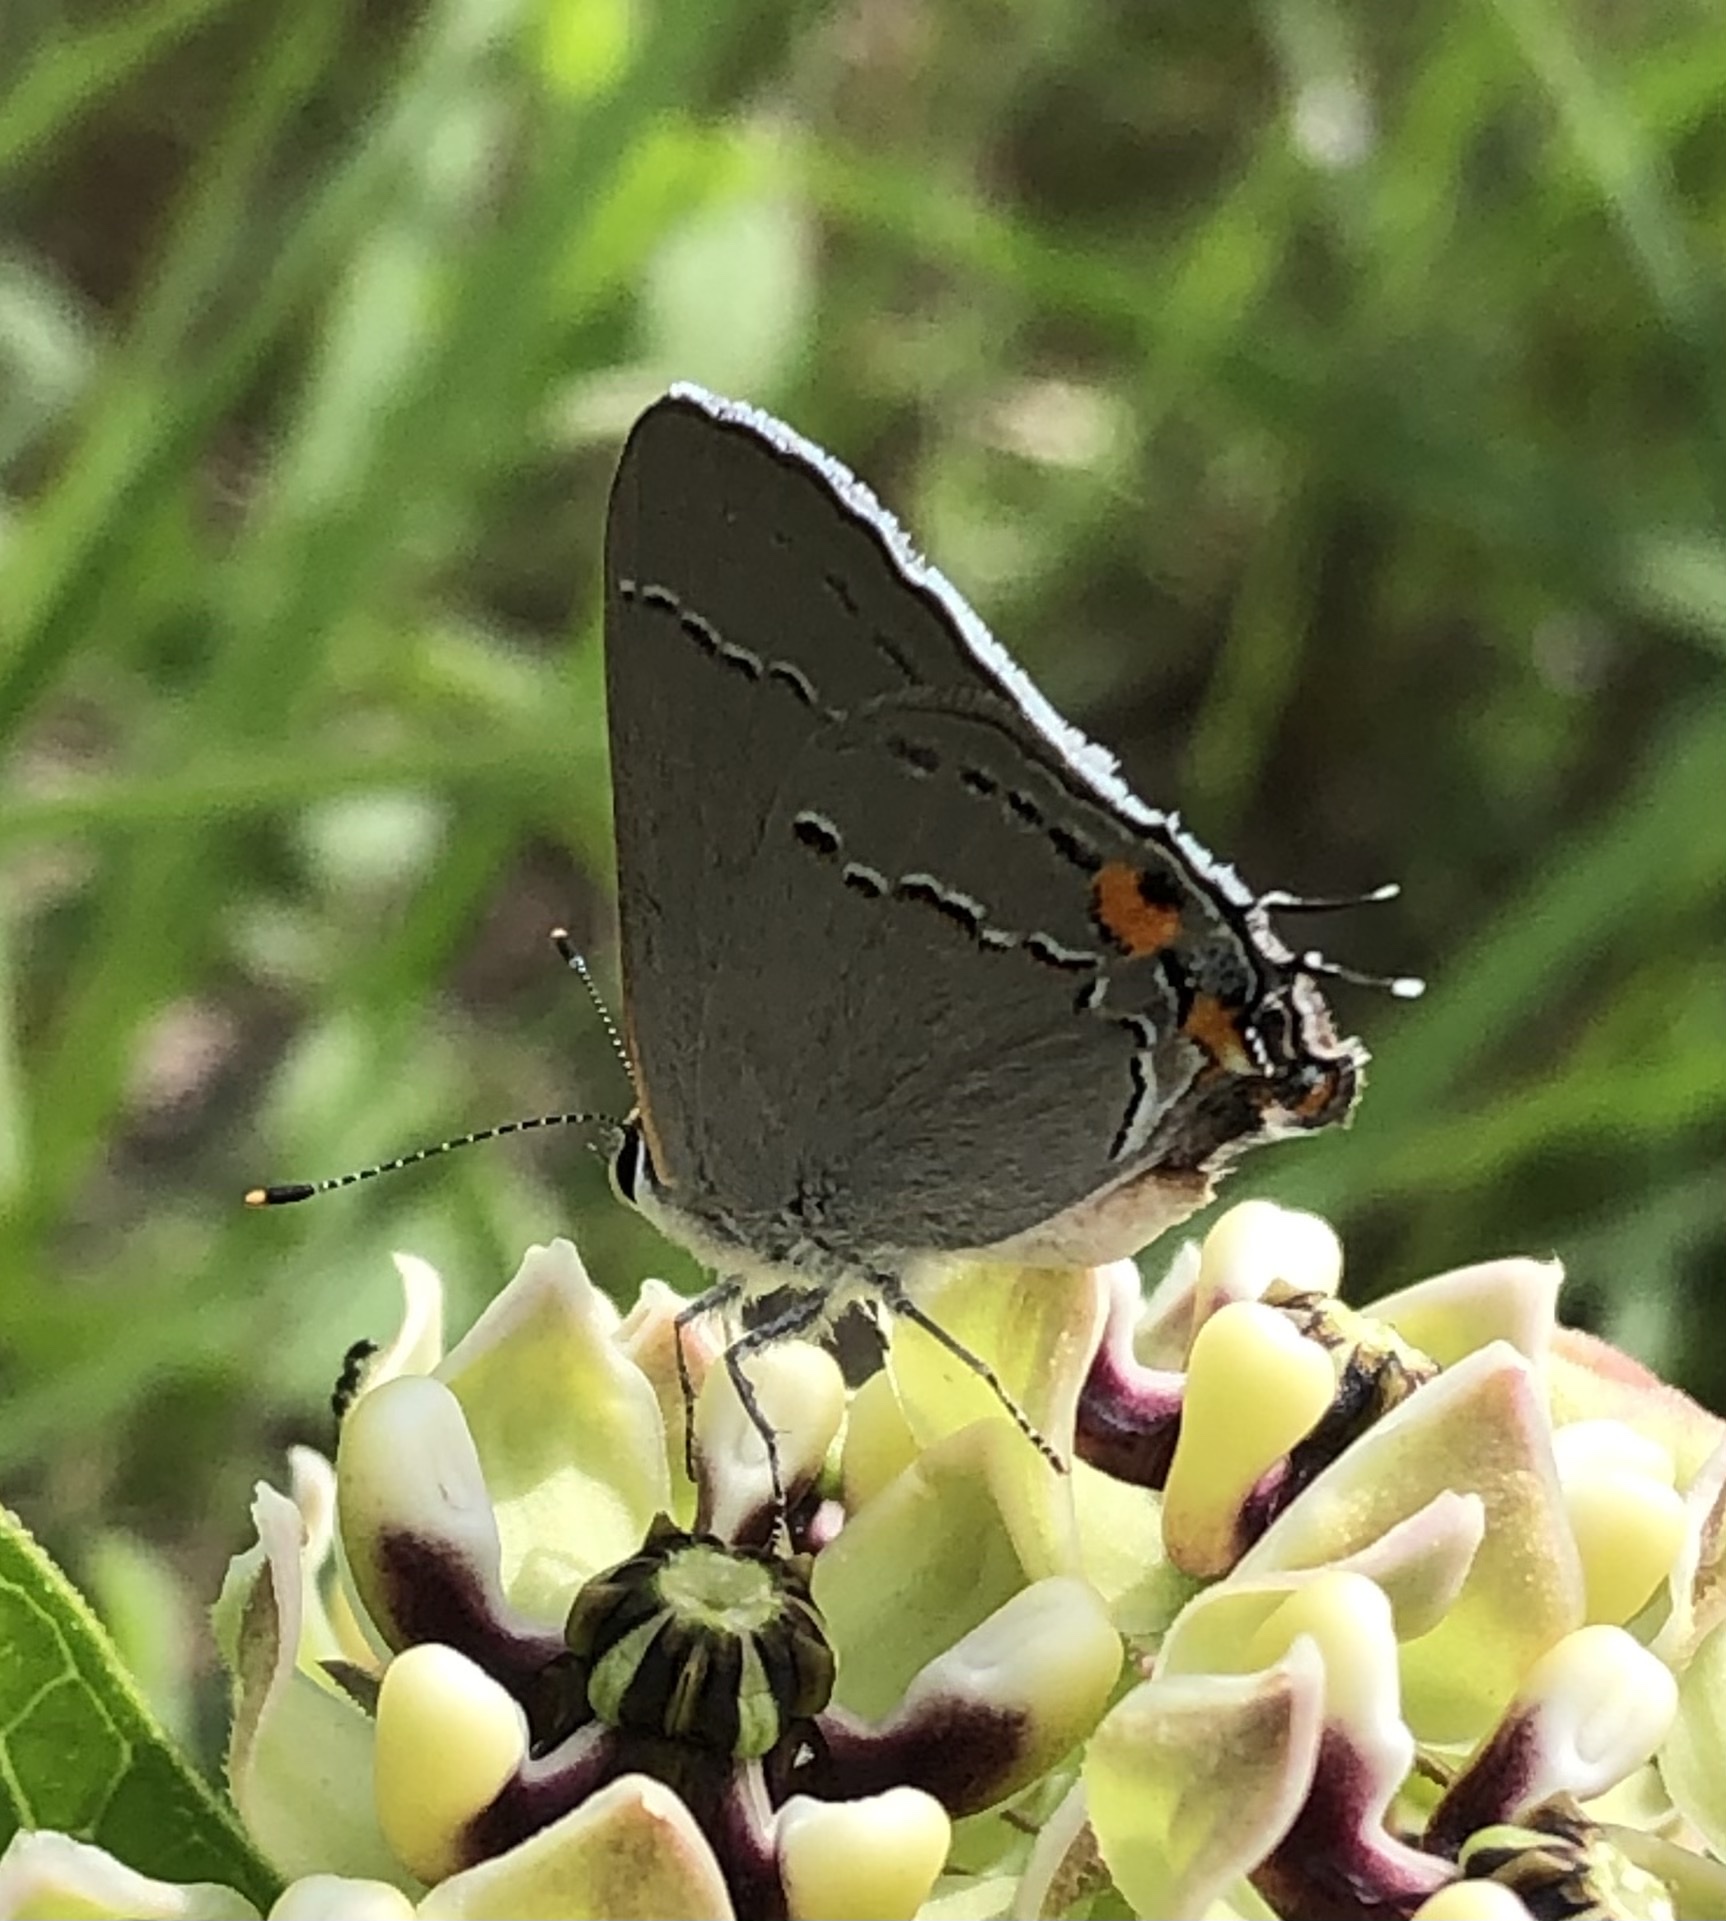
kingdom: Animalia
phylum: Arthropoda
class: Insecta
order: Lepidoptera
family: Lycaenidae
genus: Strymon
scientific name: Strymon melinus
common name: Gray hairstreak
